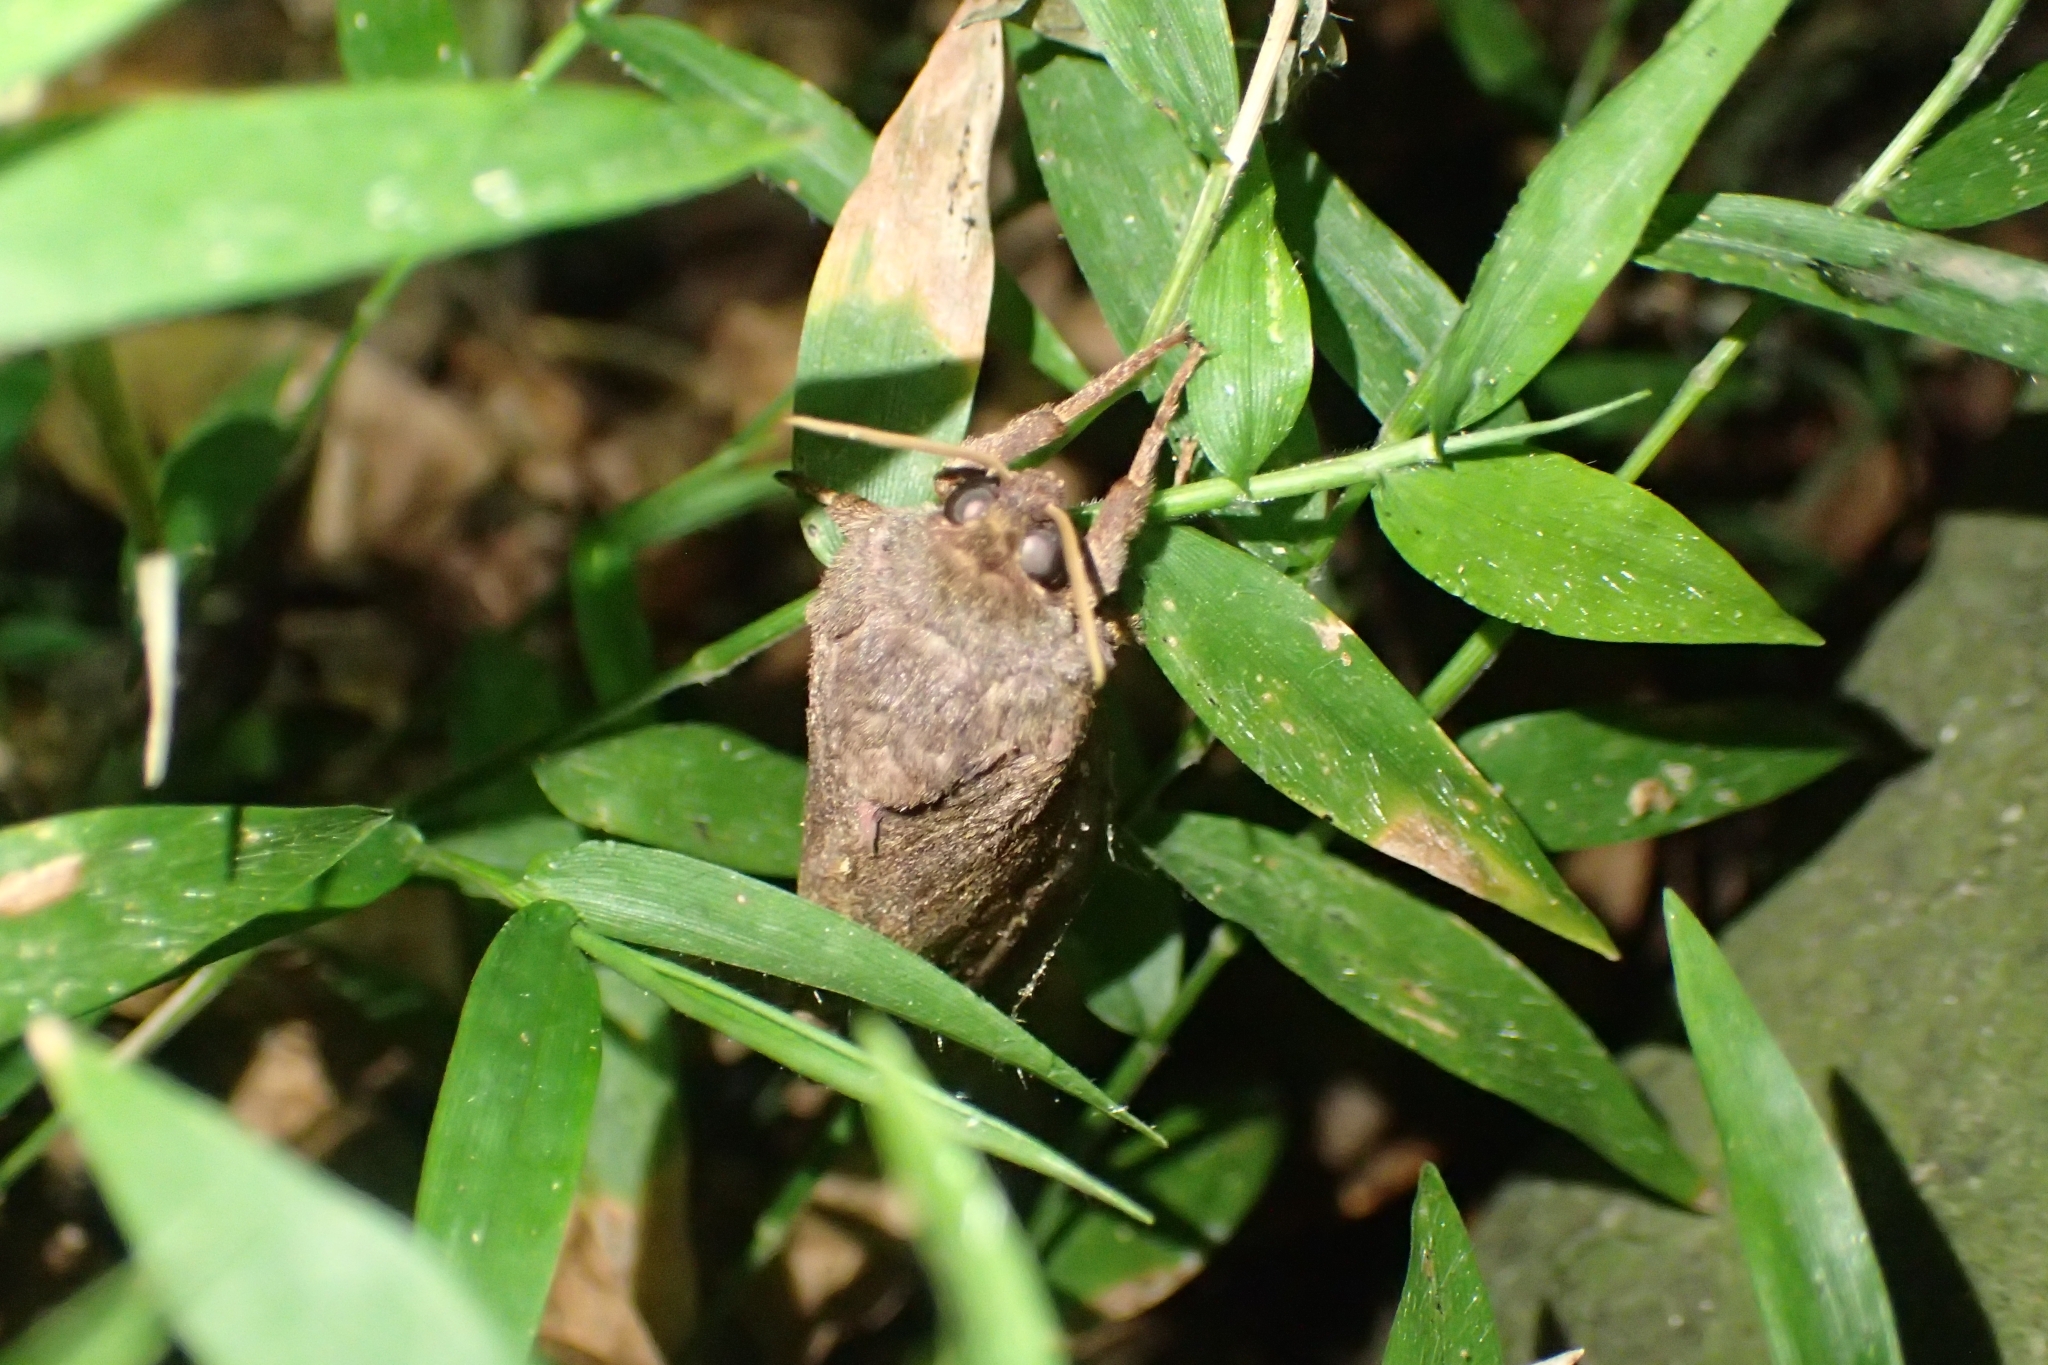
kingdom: Animalia
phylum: Arthropoda
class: Insecta
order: Lepidoptera
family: Hepialidae
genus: Dumbletonius
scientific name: Dumbletonius unimaculata
